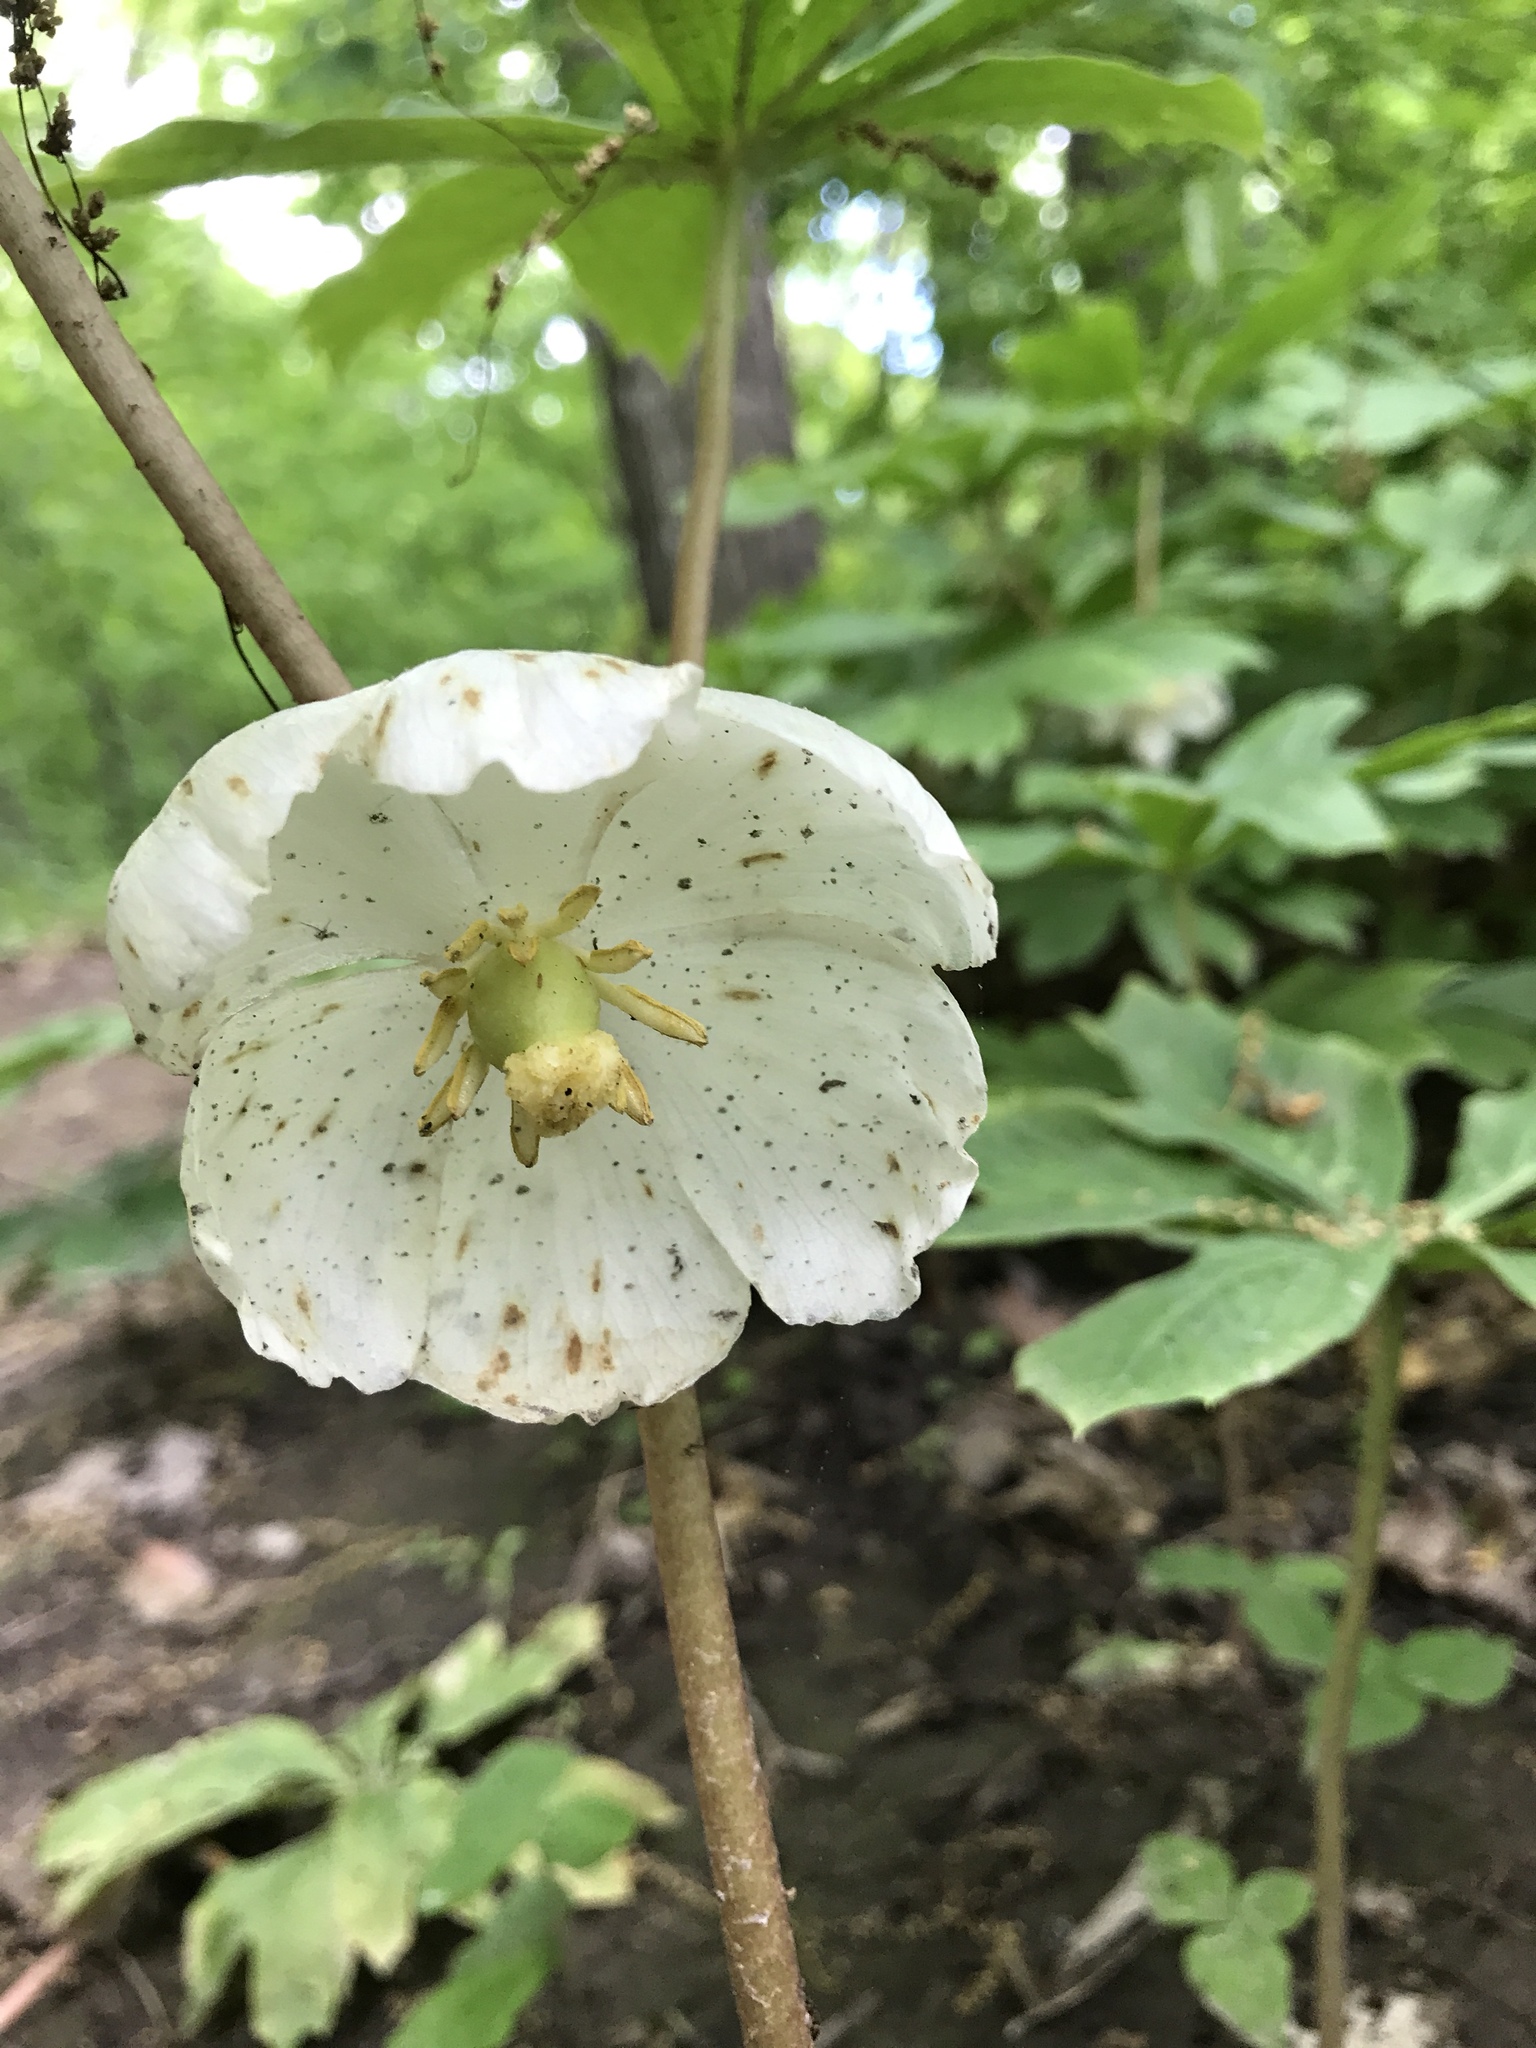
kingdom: Plantae
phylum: Tracheophyta
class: Magnoliopsida
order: Ranunculales
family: Berberidaceae
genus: Podophyllum
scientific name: Podophyllum peltatum
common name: Wild mandrake
